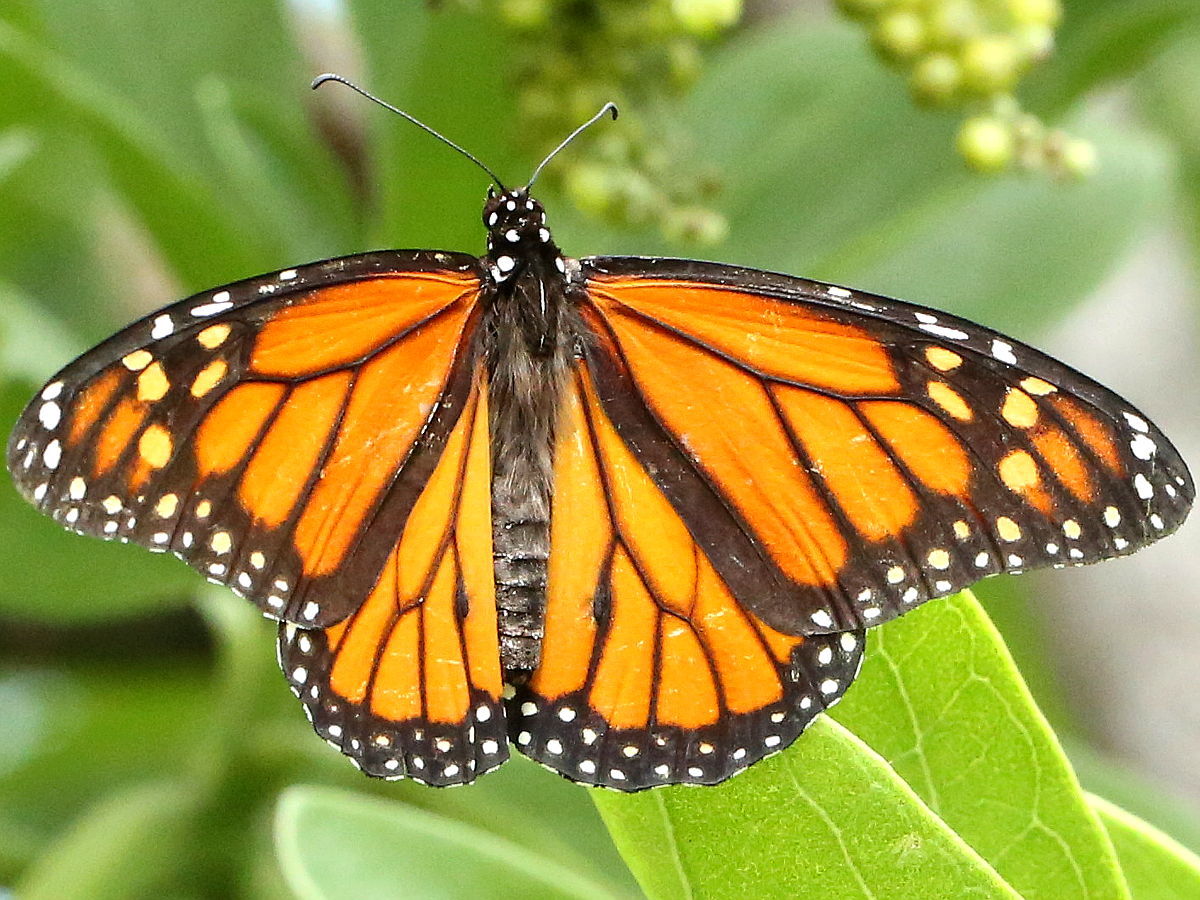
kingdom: Animalia
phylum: Arthropoda
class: Insecta
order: Lepidoptera
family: Nymphalidae
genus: Danaus
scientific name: Danaus plexippus
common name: Monarch
